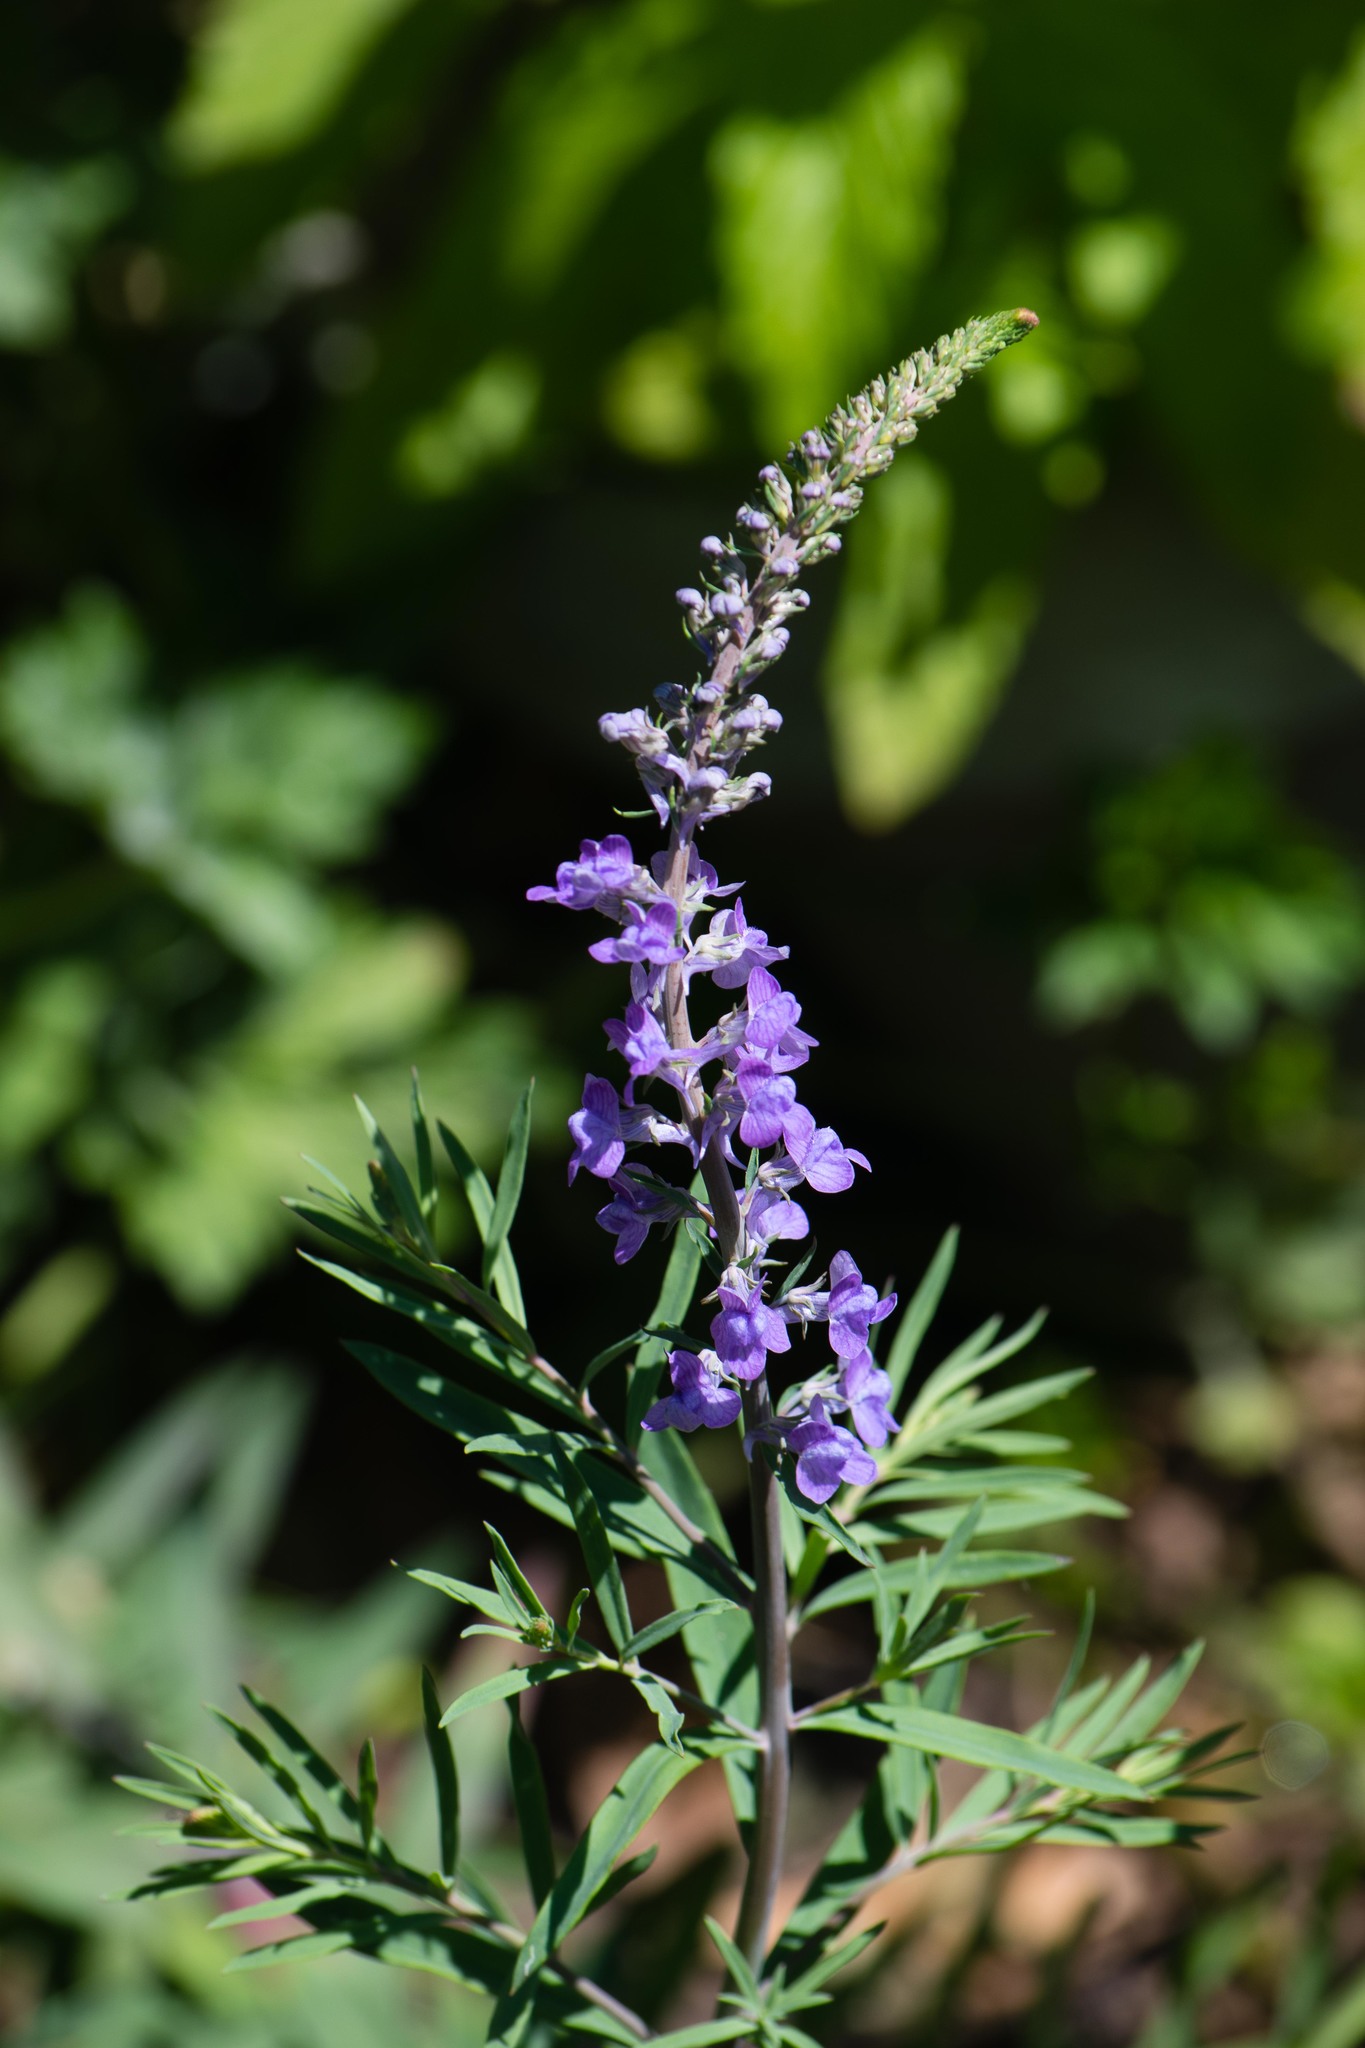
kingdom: Plantae
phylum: Tracheophyta
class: Magnoliopsida
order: Lamiales
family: Plantaginaceae
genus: Linaria
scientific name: Linaria purpurea
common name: Purple toadflax
